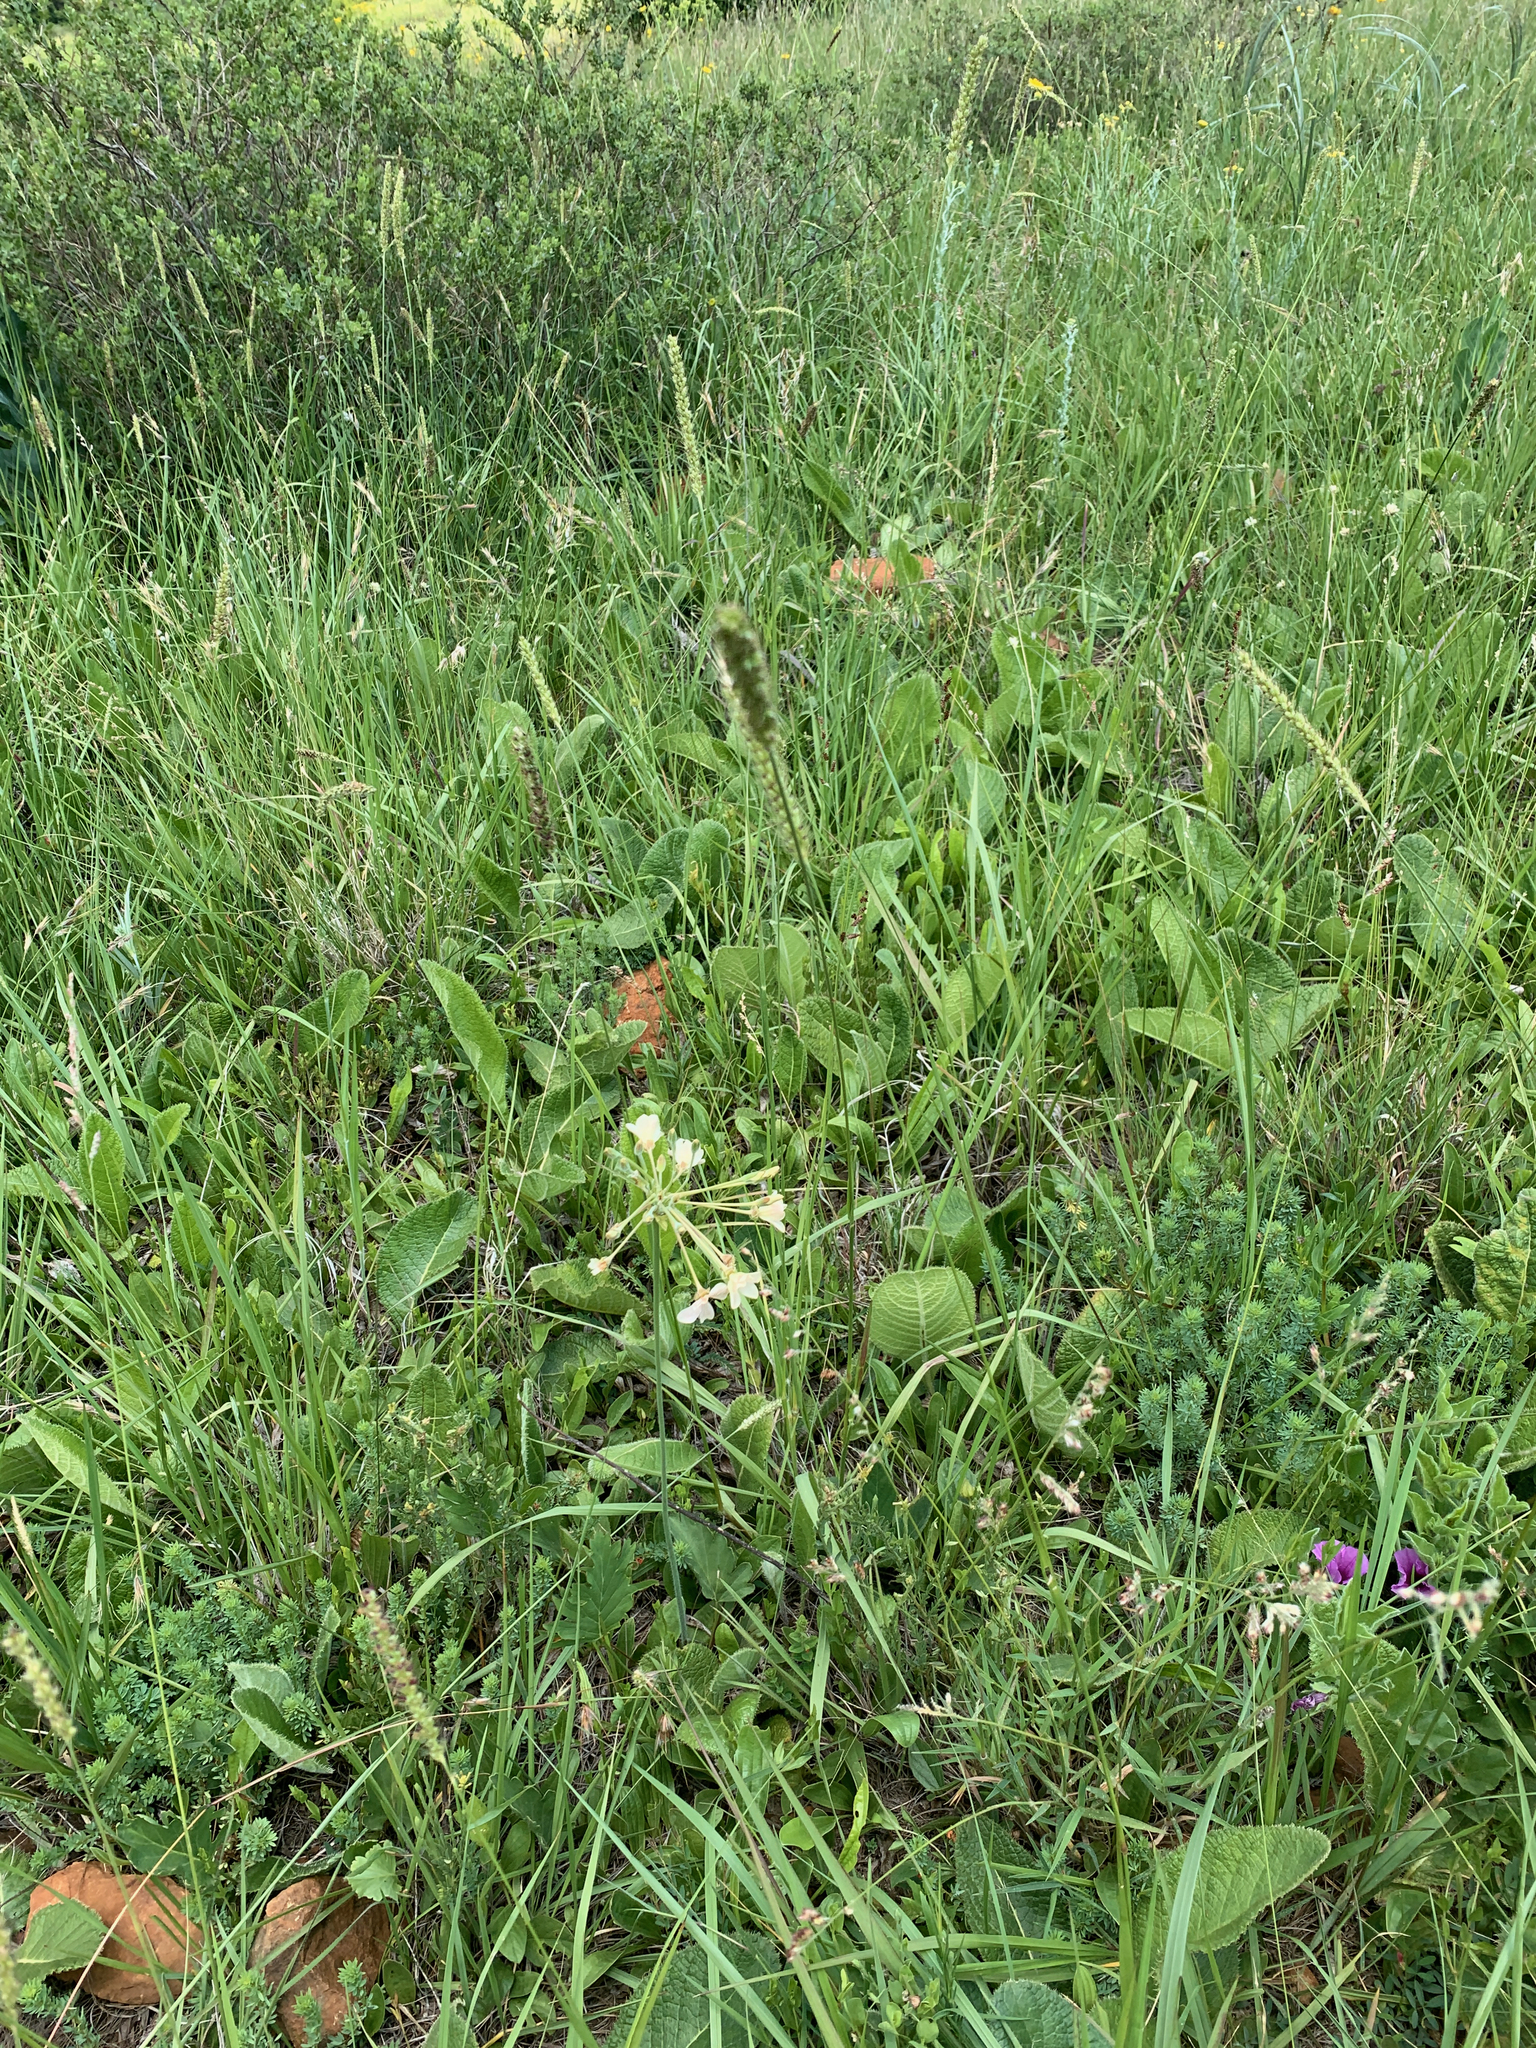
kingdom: Plantae
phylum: Tracheophyta
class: Magnoliopsida
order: Geraniales
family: Geraniaceae
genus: Pelargonium
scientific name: Pelargonium luridum
